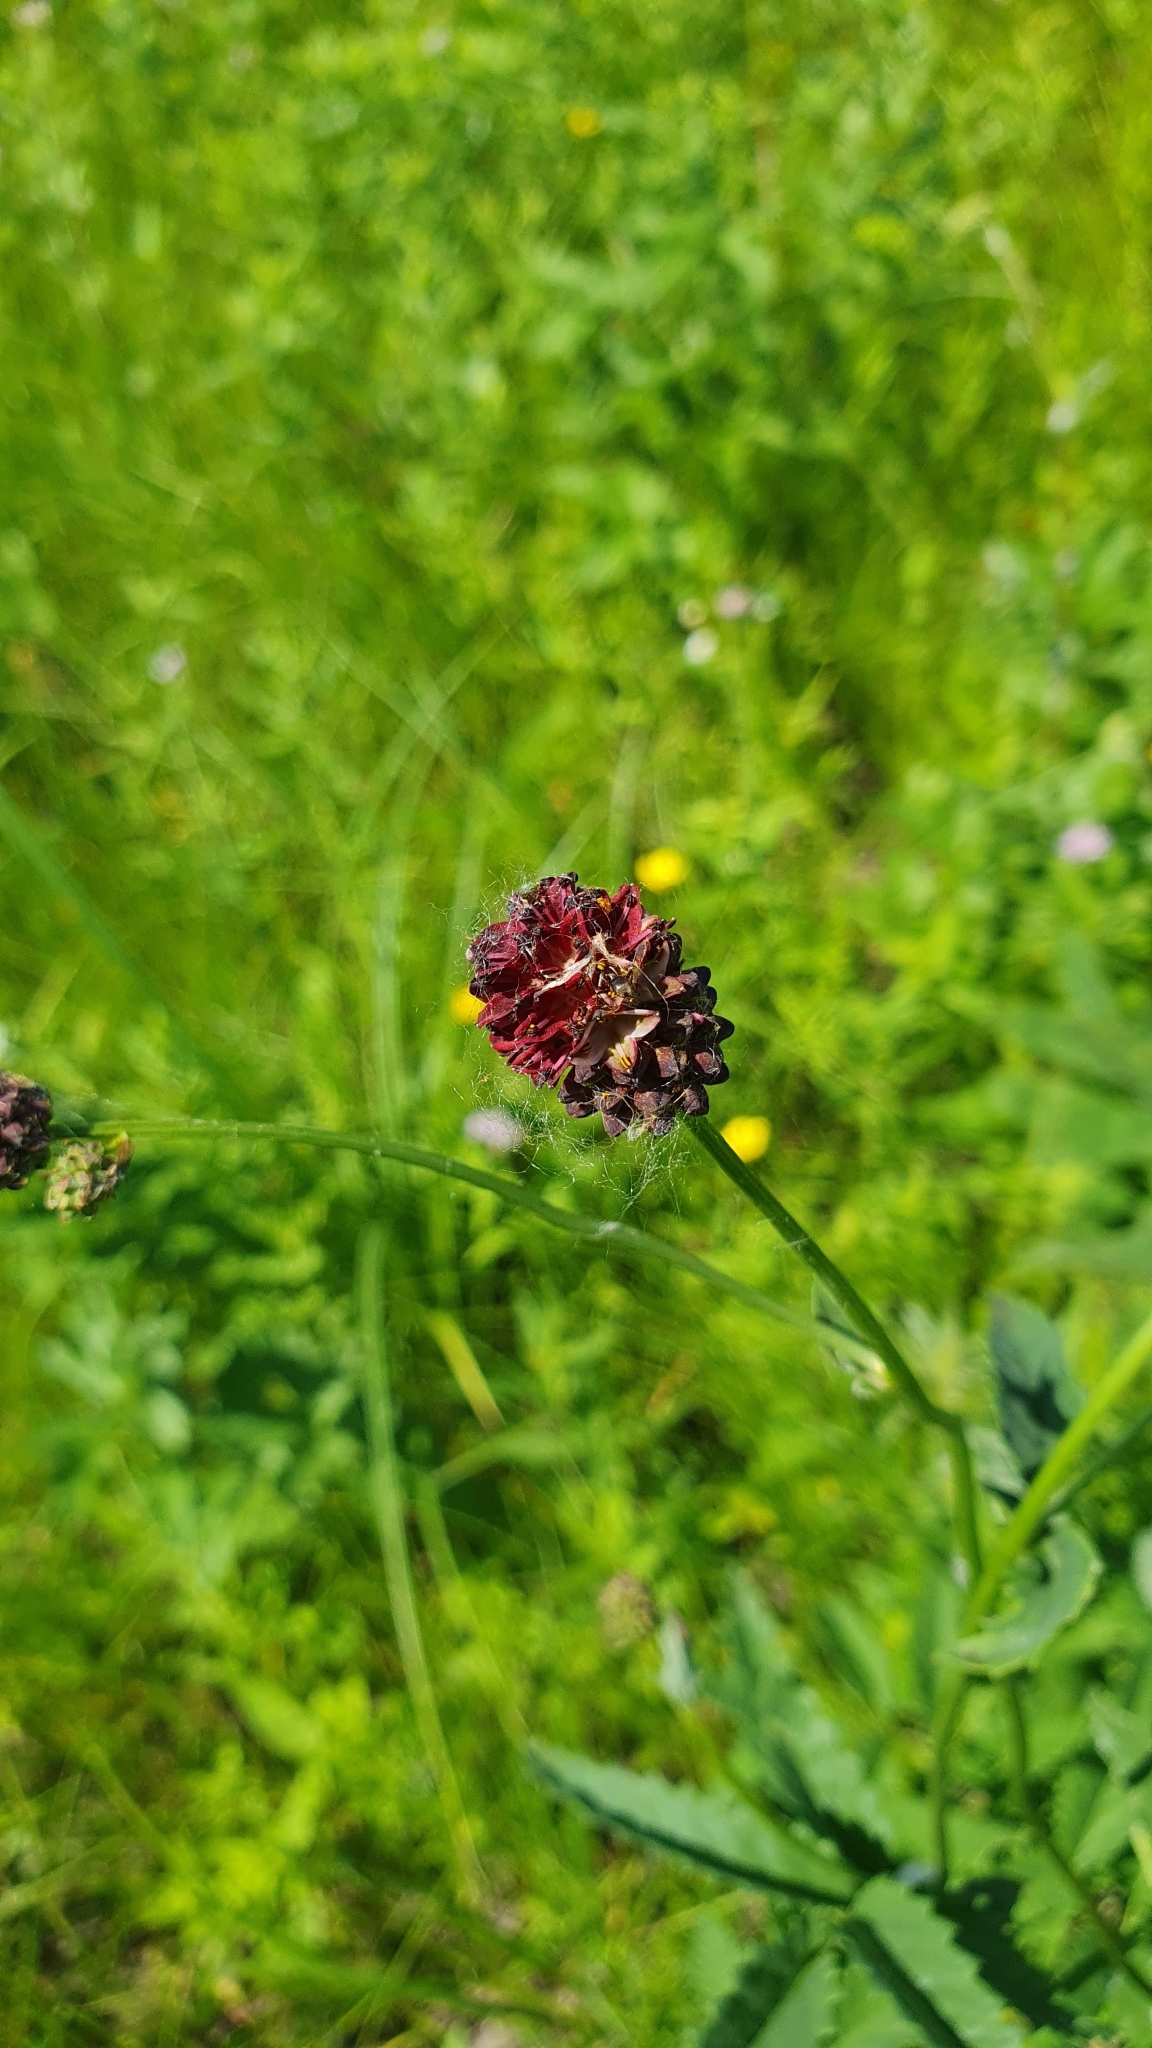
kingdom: Plantae
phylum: Tracheophyta
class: Magnoliopsida
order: Rosales
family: Rosaceae
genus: Sanguisorba
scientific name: Sanguisorba officinalis
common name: Great burnet
